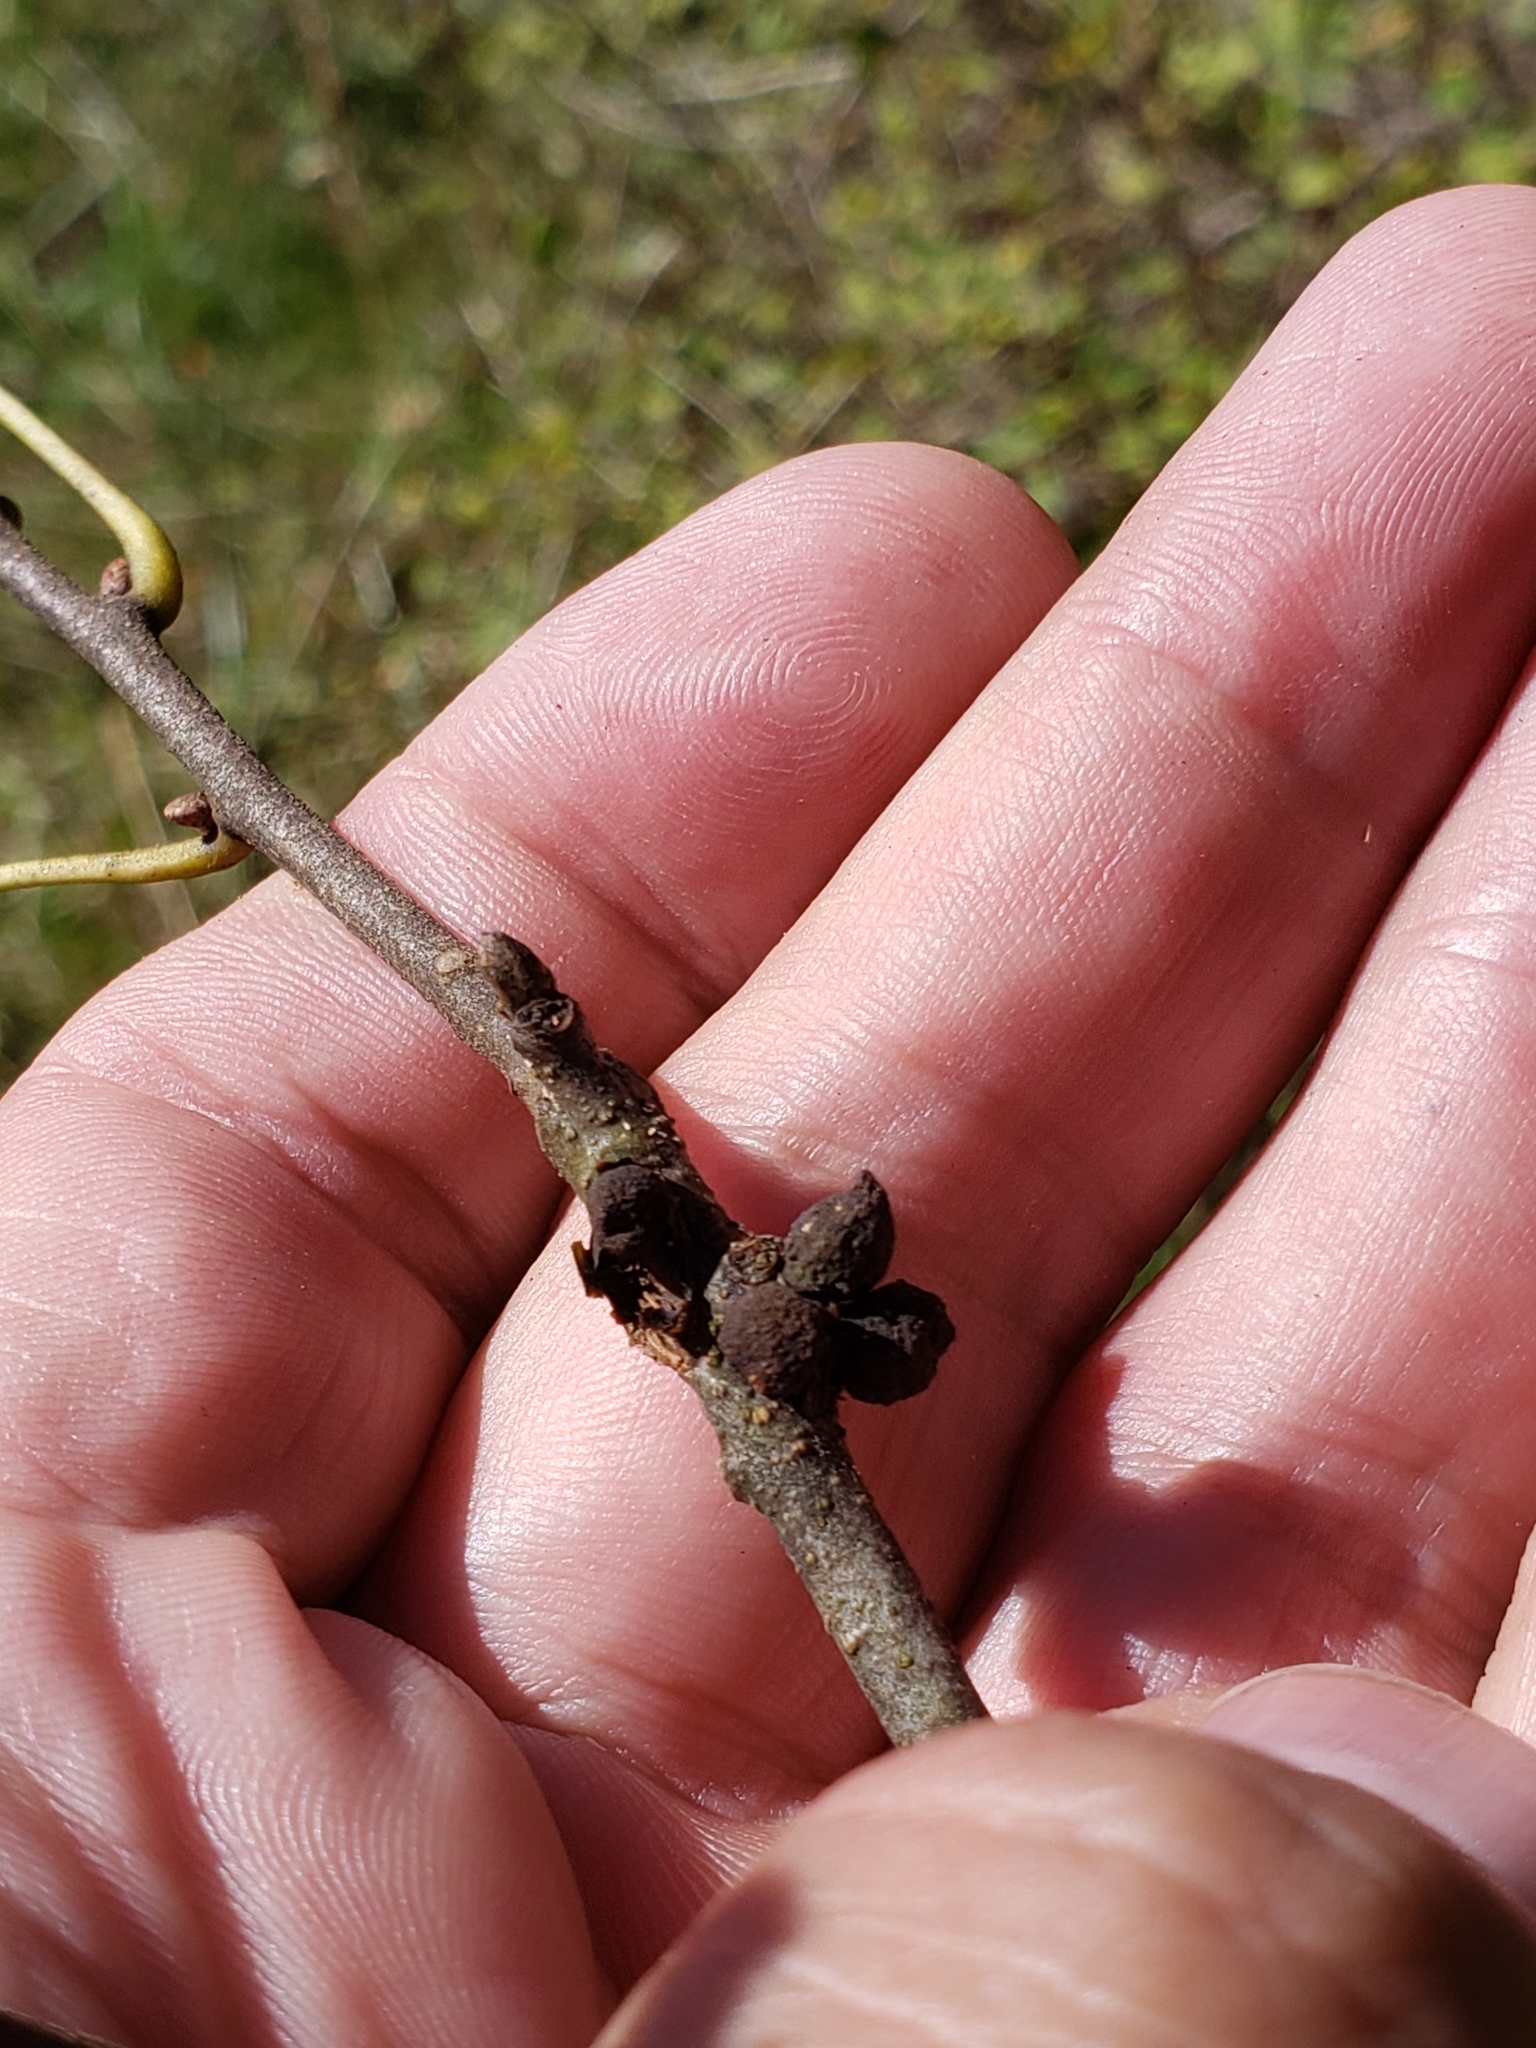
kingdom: Animalia
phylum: Arthropoda
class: Insecta
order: Hymenoptera
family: Cynipidae
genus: Callirhytis
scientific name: Callirhytis
